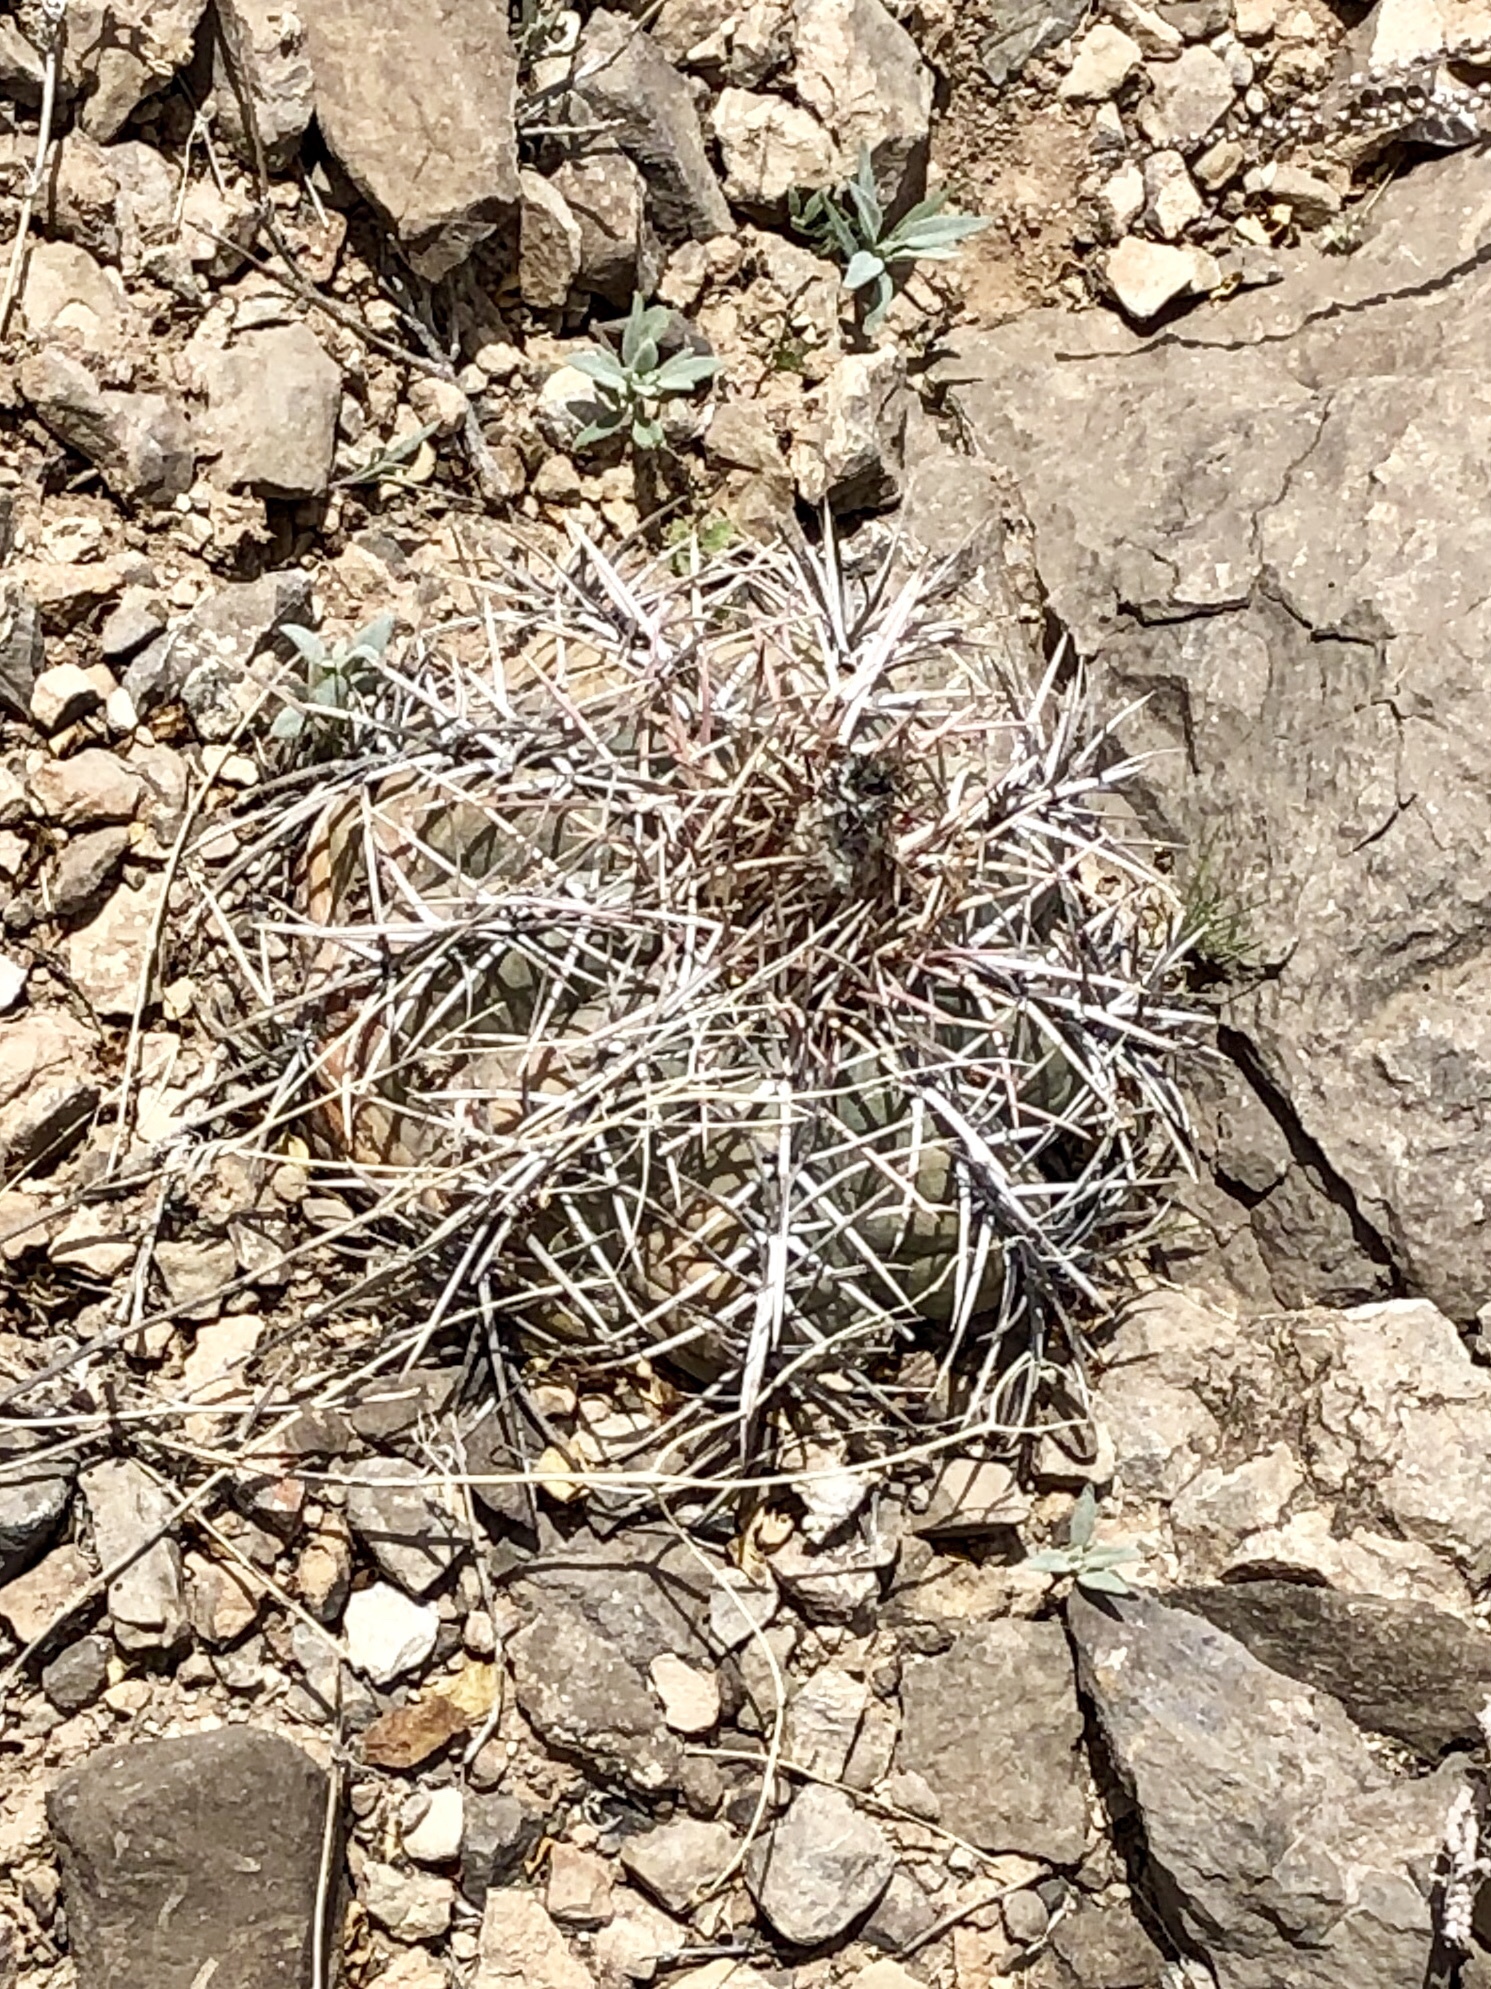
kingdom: Plantae
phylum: Tracheophyta
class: Magnoliopsida
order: Caryophyllales
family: Cactaceae
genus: Echinocactus
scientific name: Echinocactus horizonthalonius
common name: Devilshead
